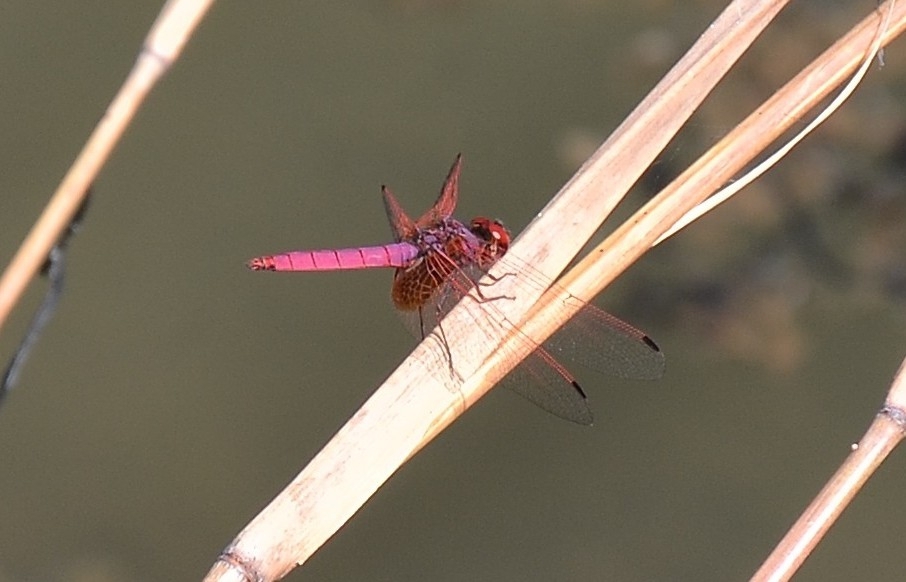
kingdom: Animalia
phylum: Arthropoda
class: Insecta
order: Odonata
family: Libellulidae
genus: Trithemis
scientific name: Trithemis aurora
